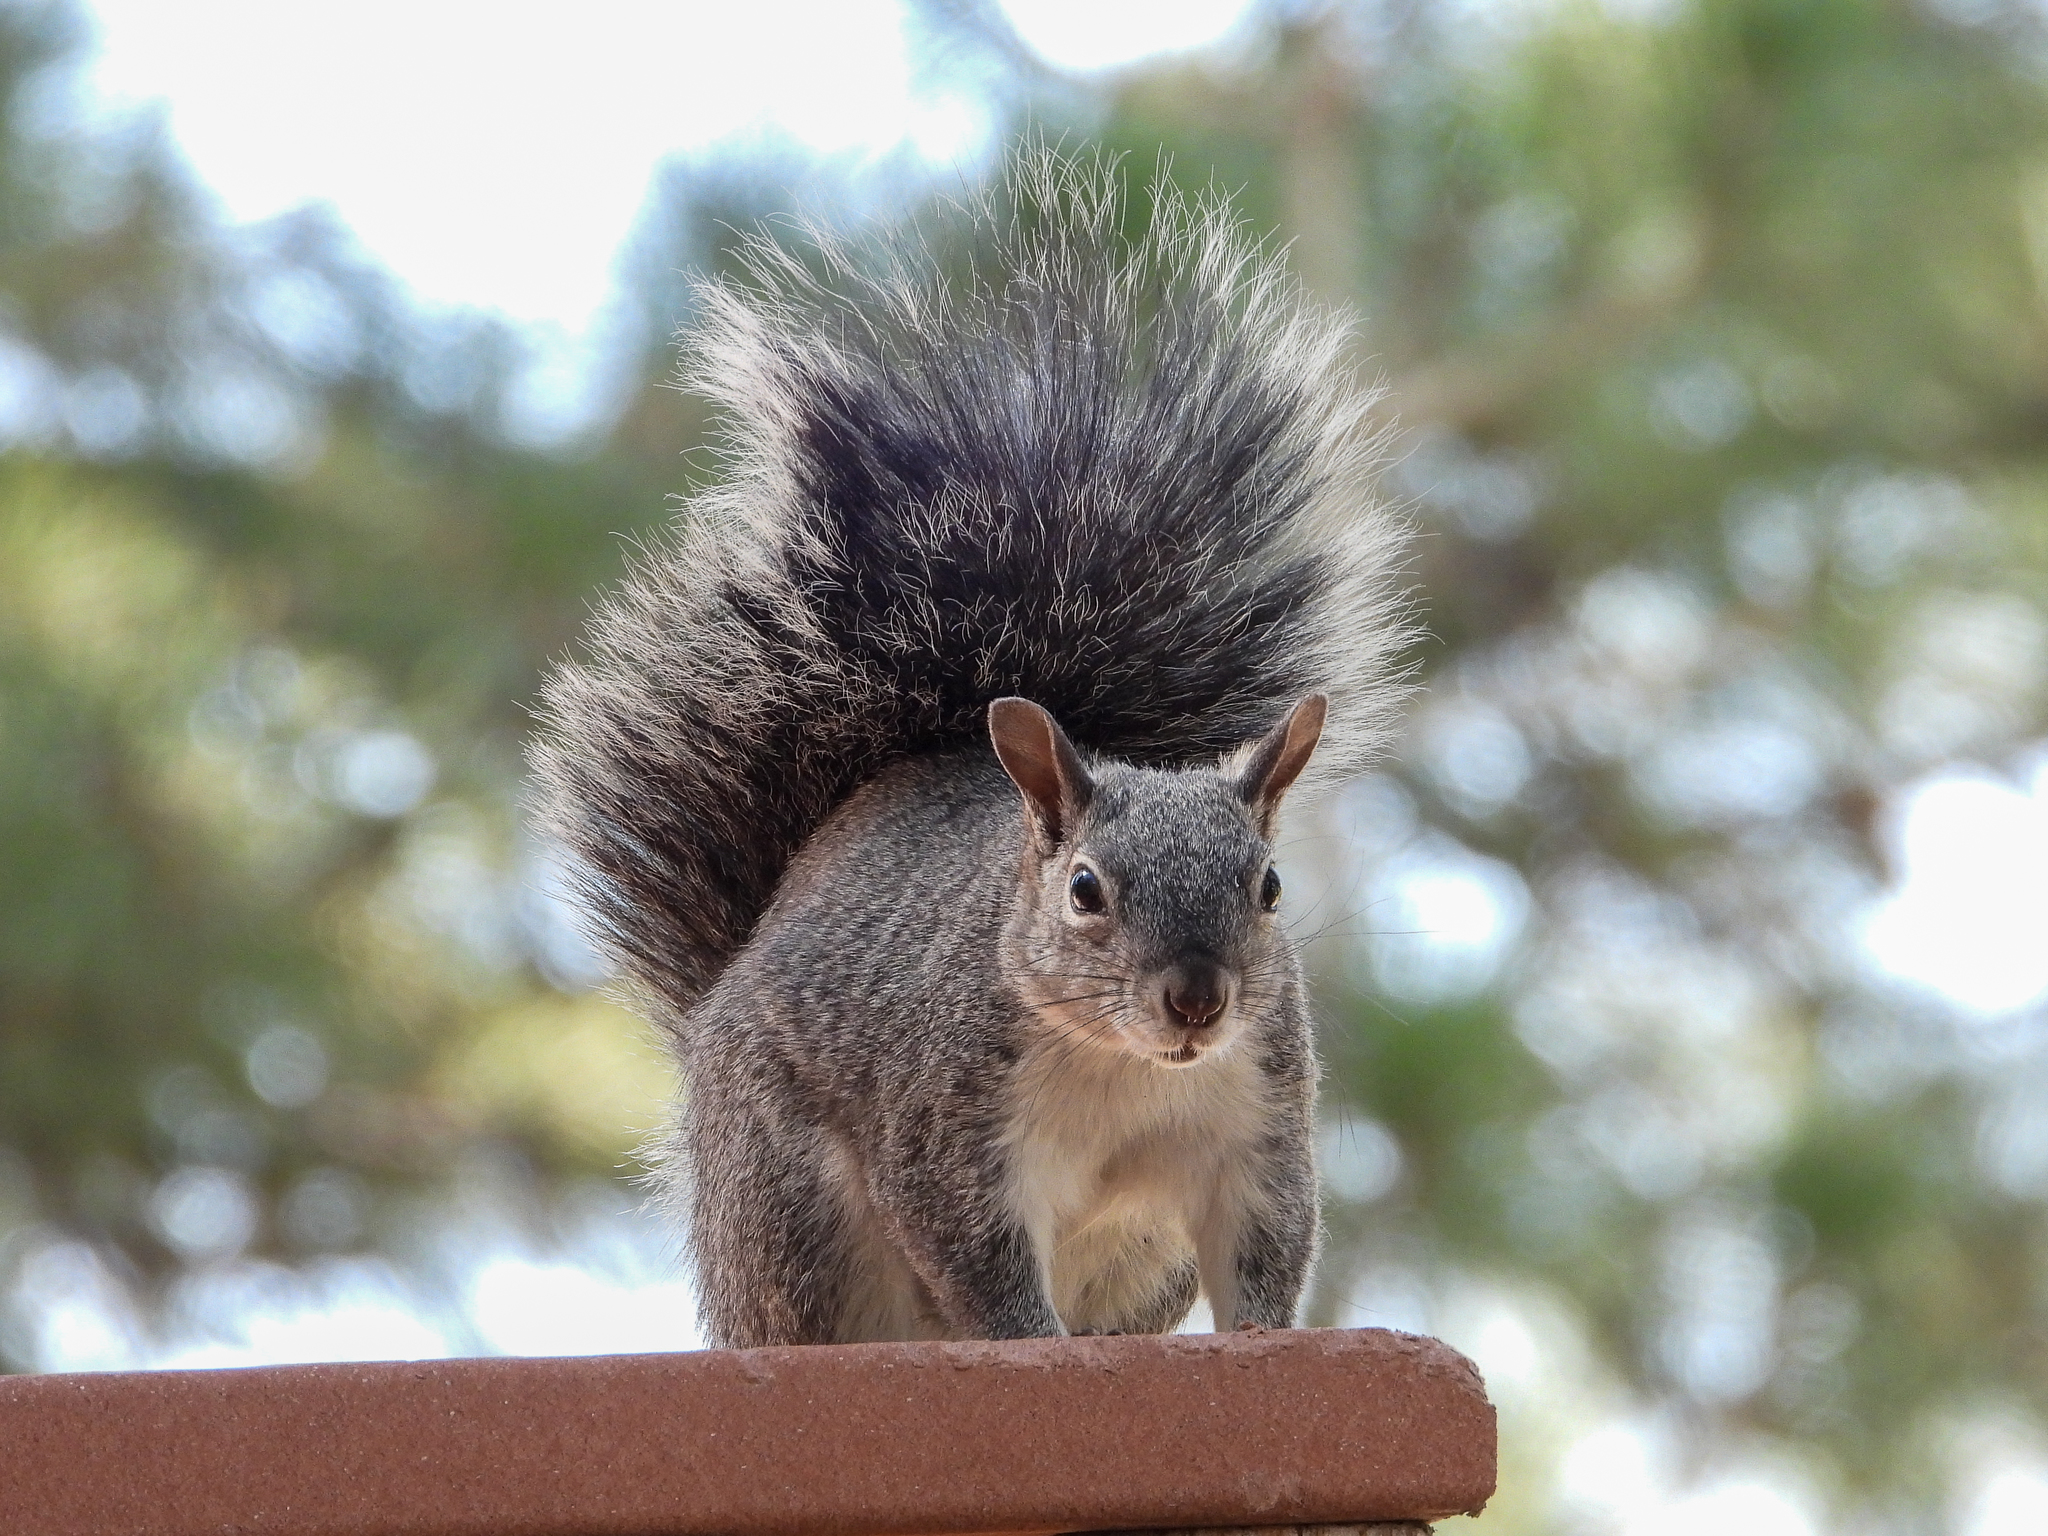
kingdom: Animalia
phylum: Chordata
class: Mammalia
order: Rodentia
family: Sciuridae
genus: Sciurus
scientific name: Sciurus griseus
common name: Western gray squirrel
